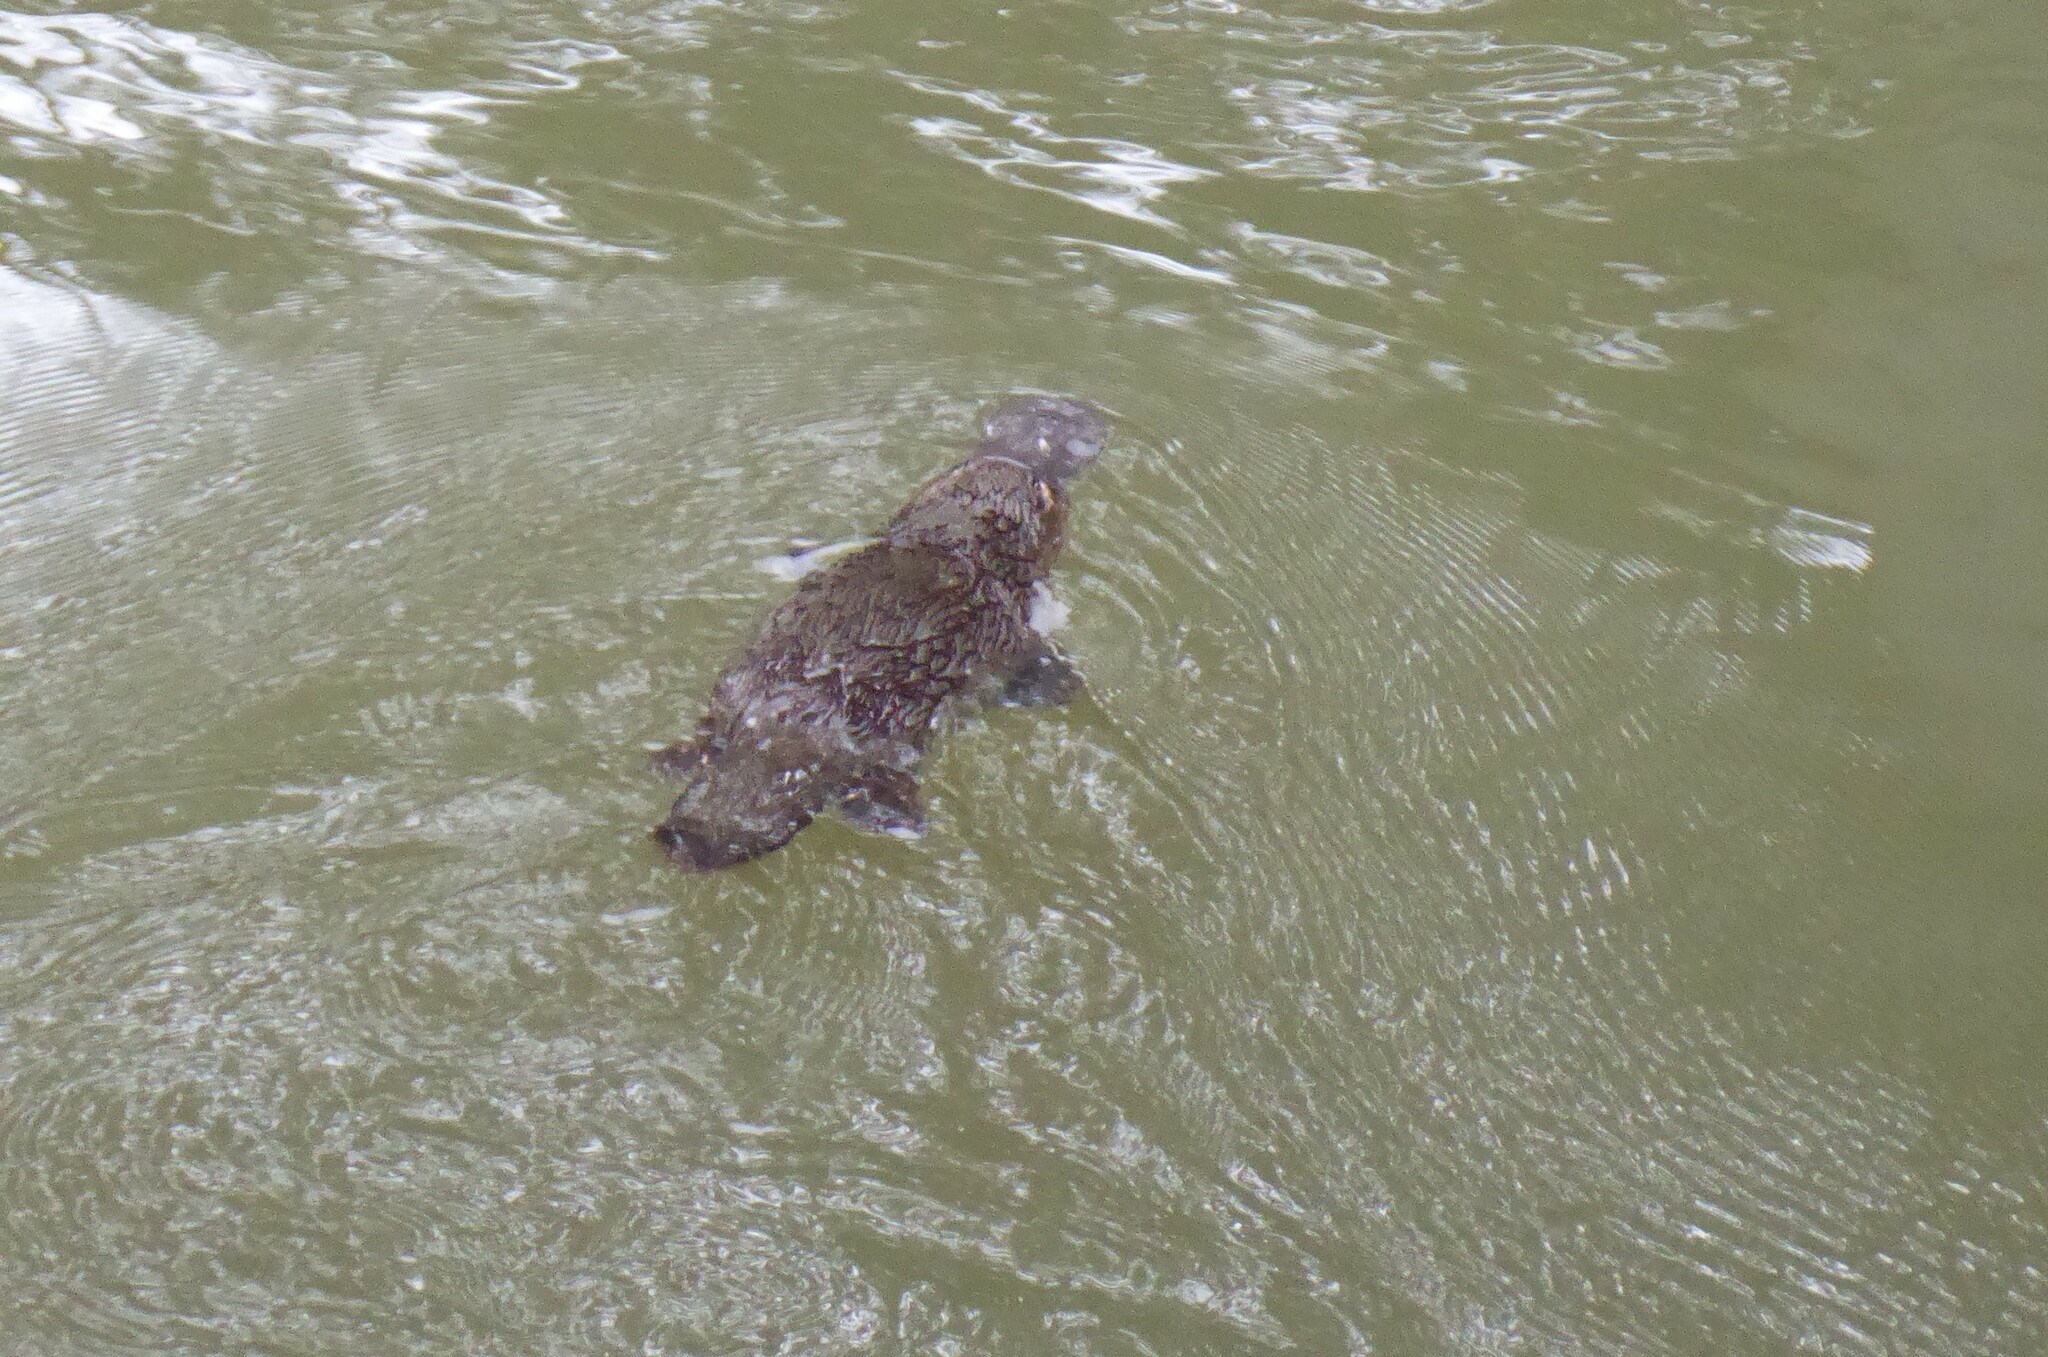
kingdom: Animalia
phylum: Chordata
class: Mammalia
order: Monotremata
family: Ornithorhynchidae
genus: Ornithorhynchus
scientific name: Ornithorhynchus anatinus
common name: Platypus
